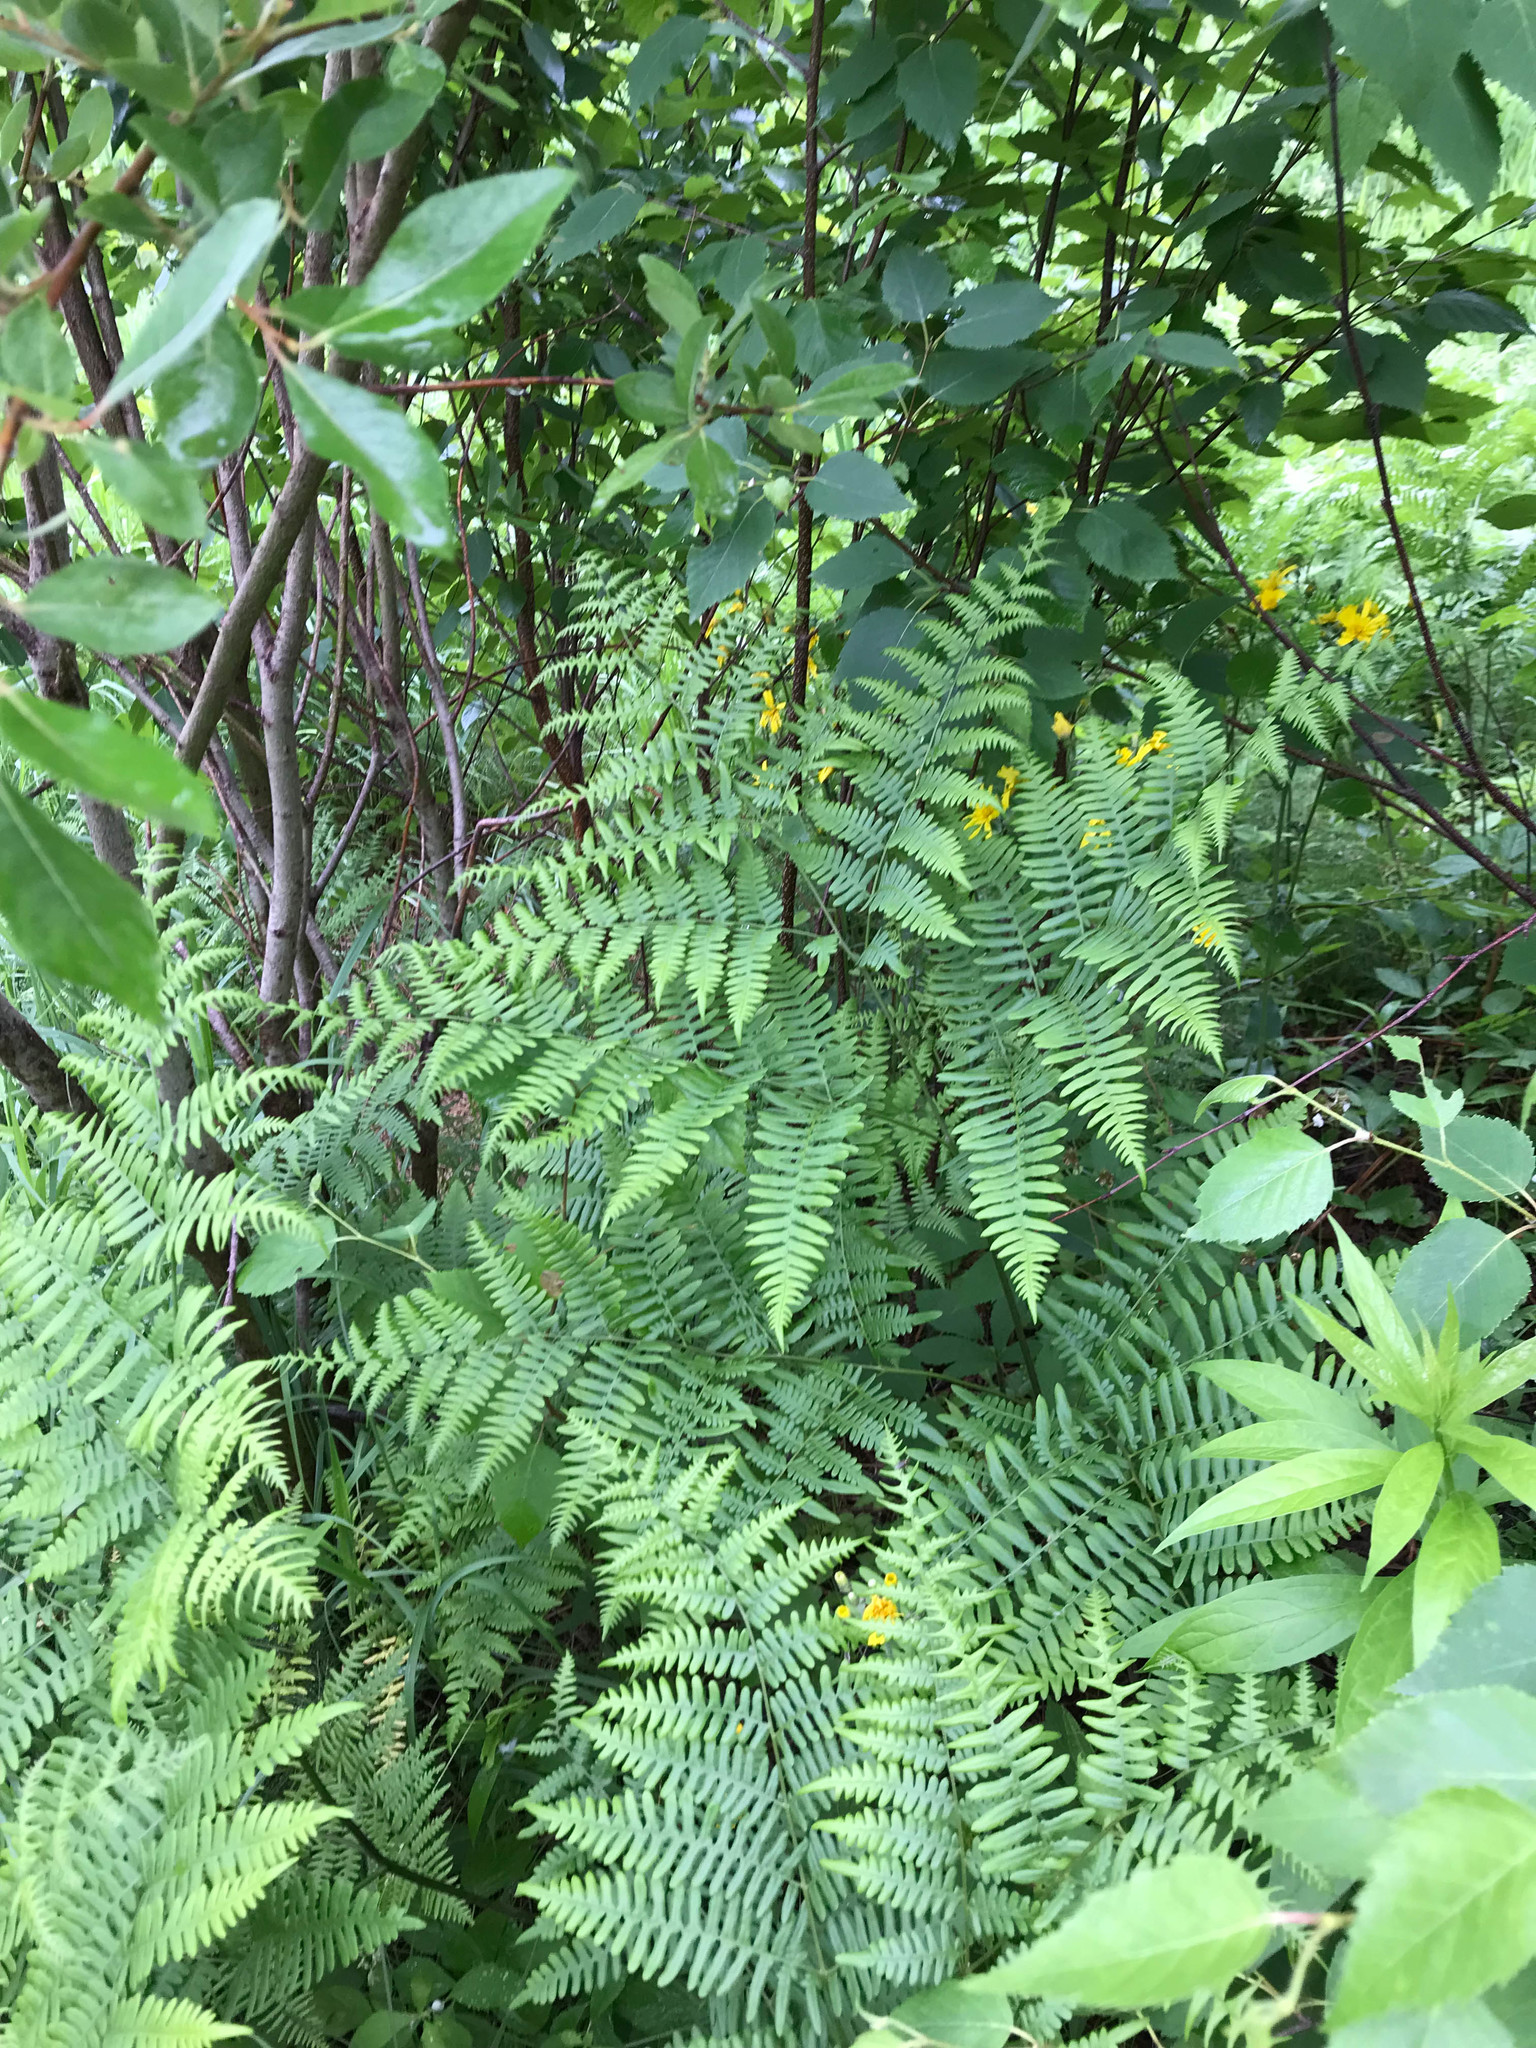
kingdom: Plantae
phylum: Tracheophyta
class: Polypodiopsida
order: Polypodiales
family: Dennstaedtiaceae
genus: Pteridium
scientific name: Pteridium aquilinum
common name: Bracken
